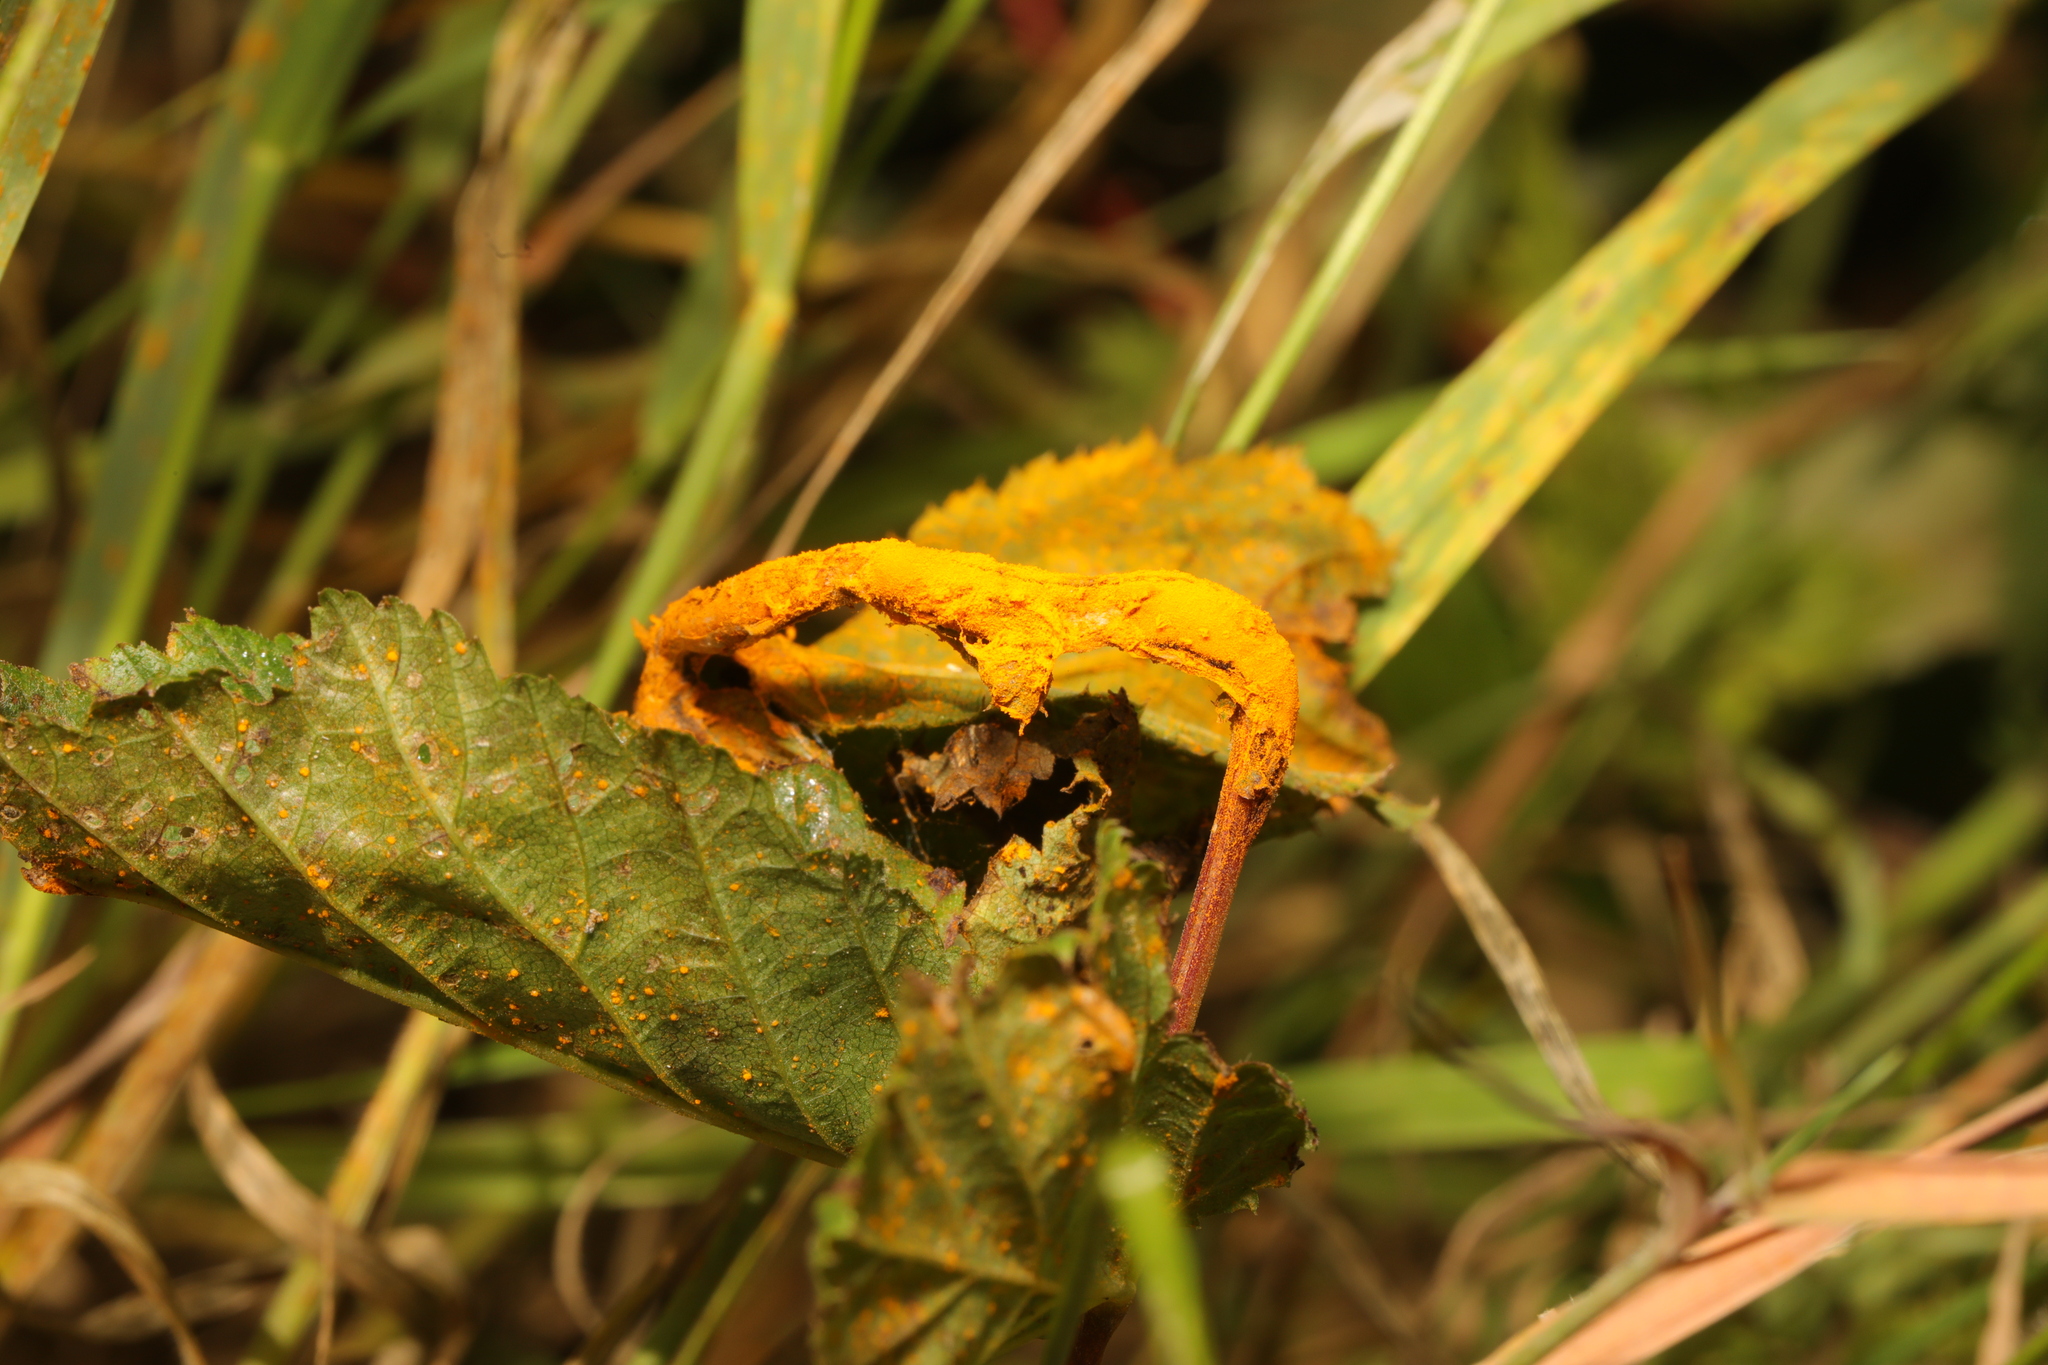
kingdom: Fungi
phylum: Basidiomycota
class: Pucciniomycetes
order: Pucciniales
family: Raveneliaceae
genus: Triphragmium
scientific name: Triphragmium ulmariae
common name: Meadowsweet rust
